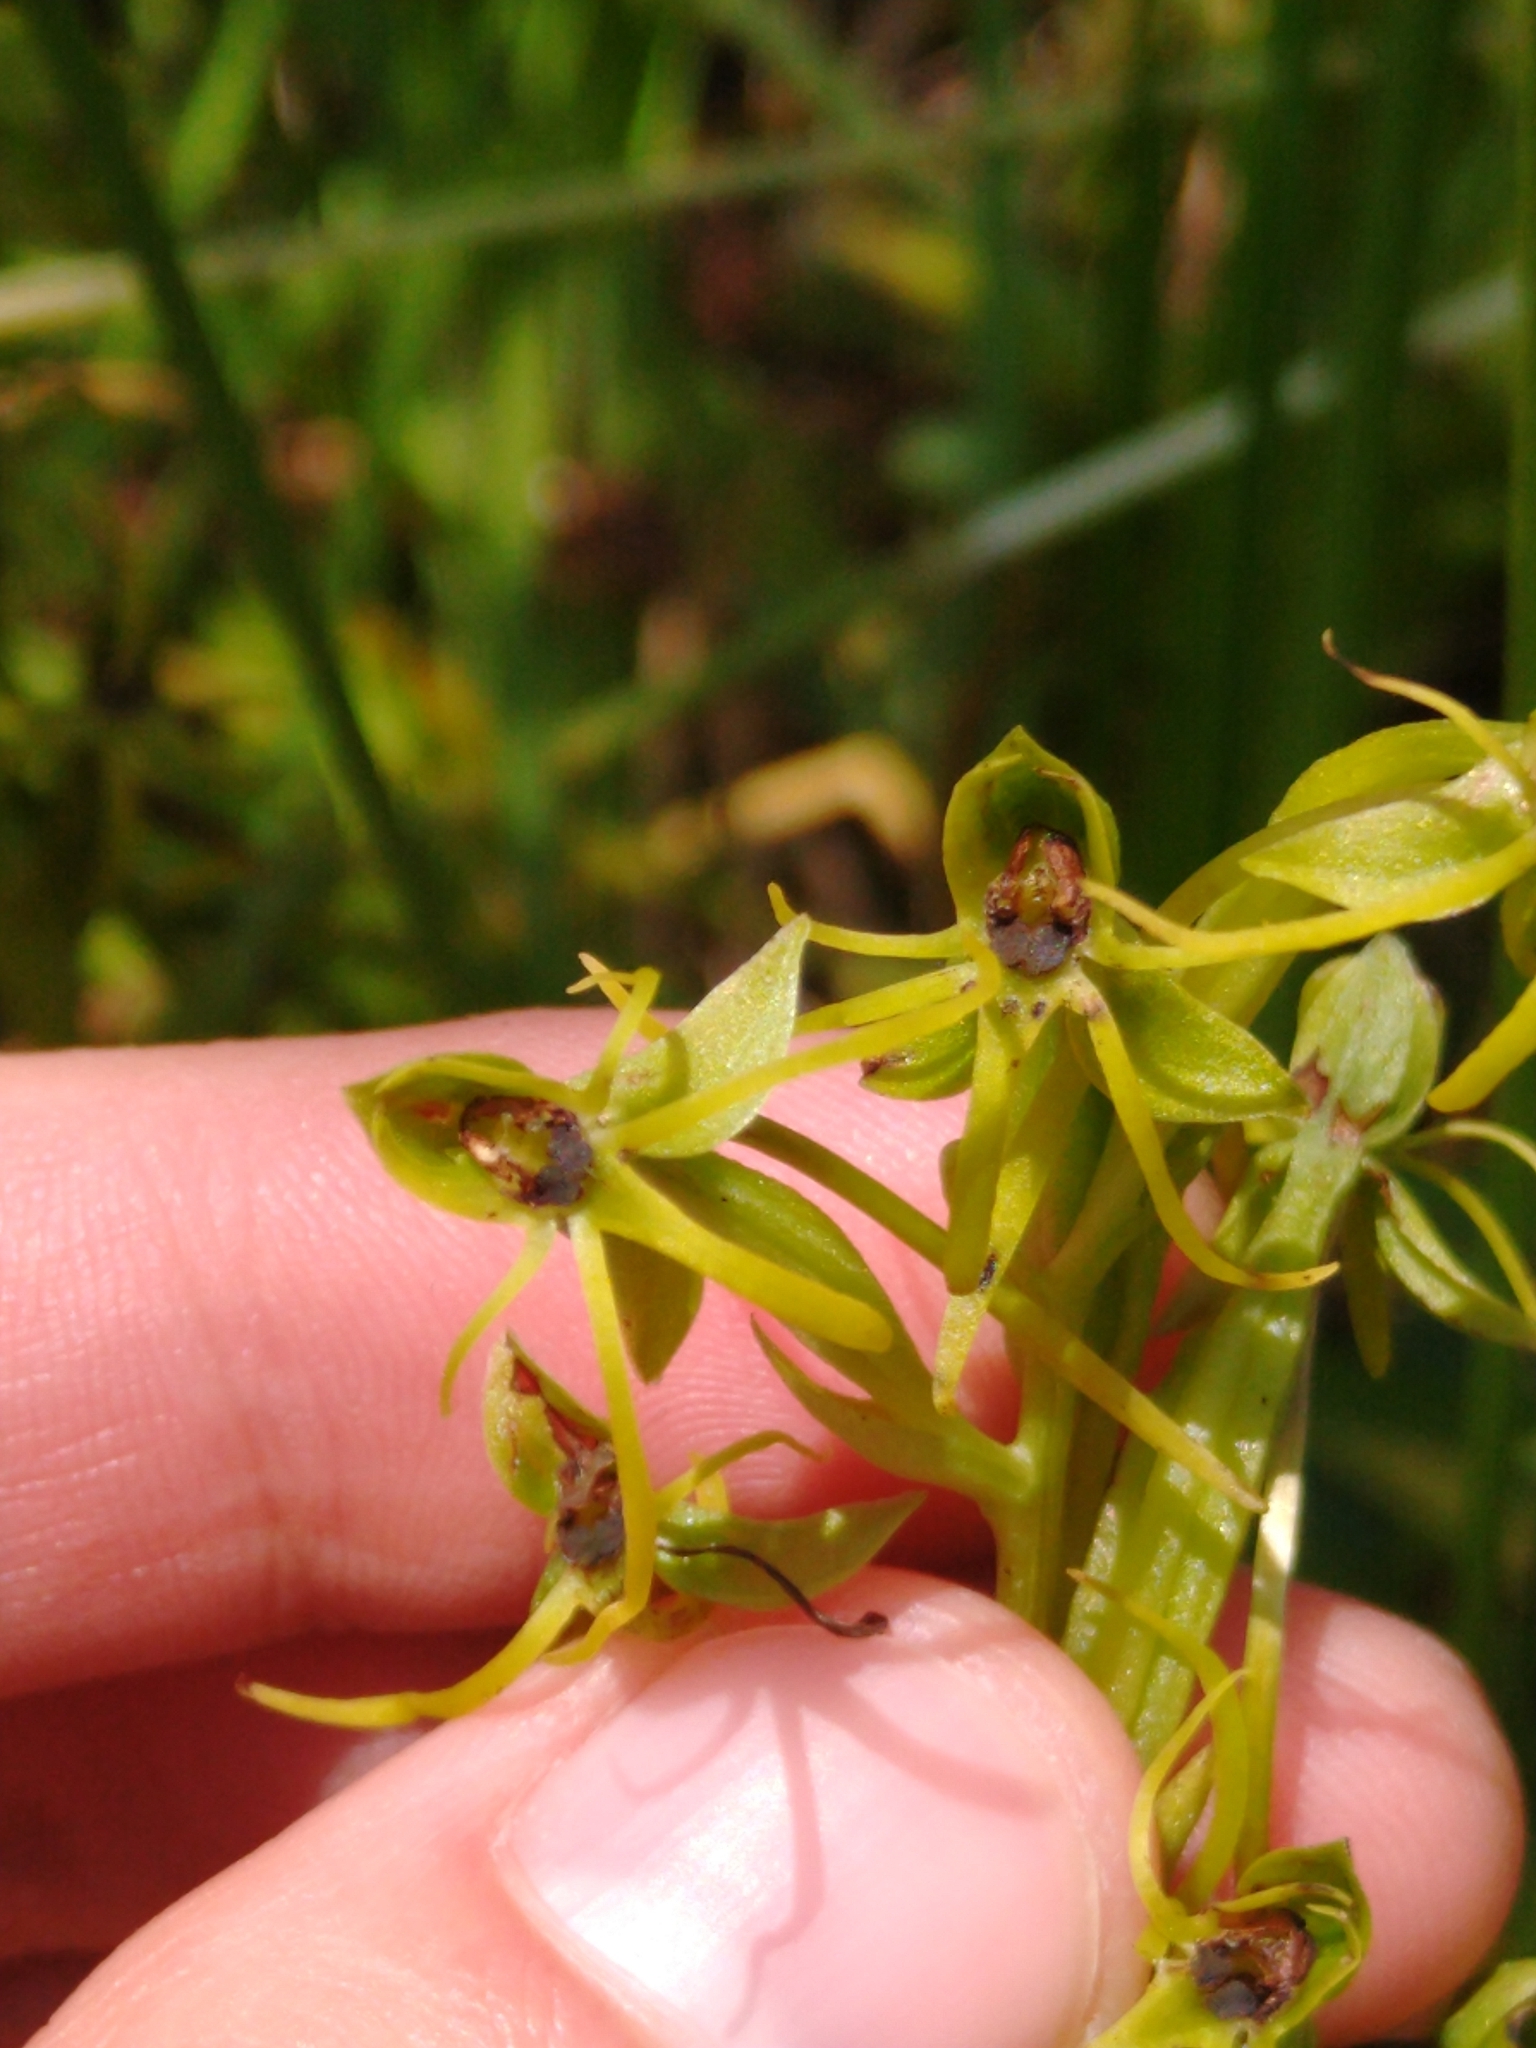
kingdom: Plantae
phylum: Tracheophyta
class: Liliopsida
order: Asparagales
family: Orchidaceae
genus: Habenaria
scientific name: Habenaria novemfida
